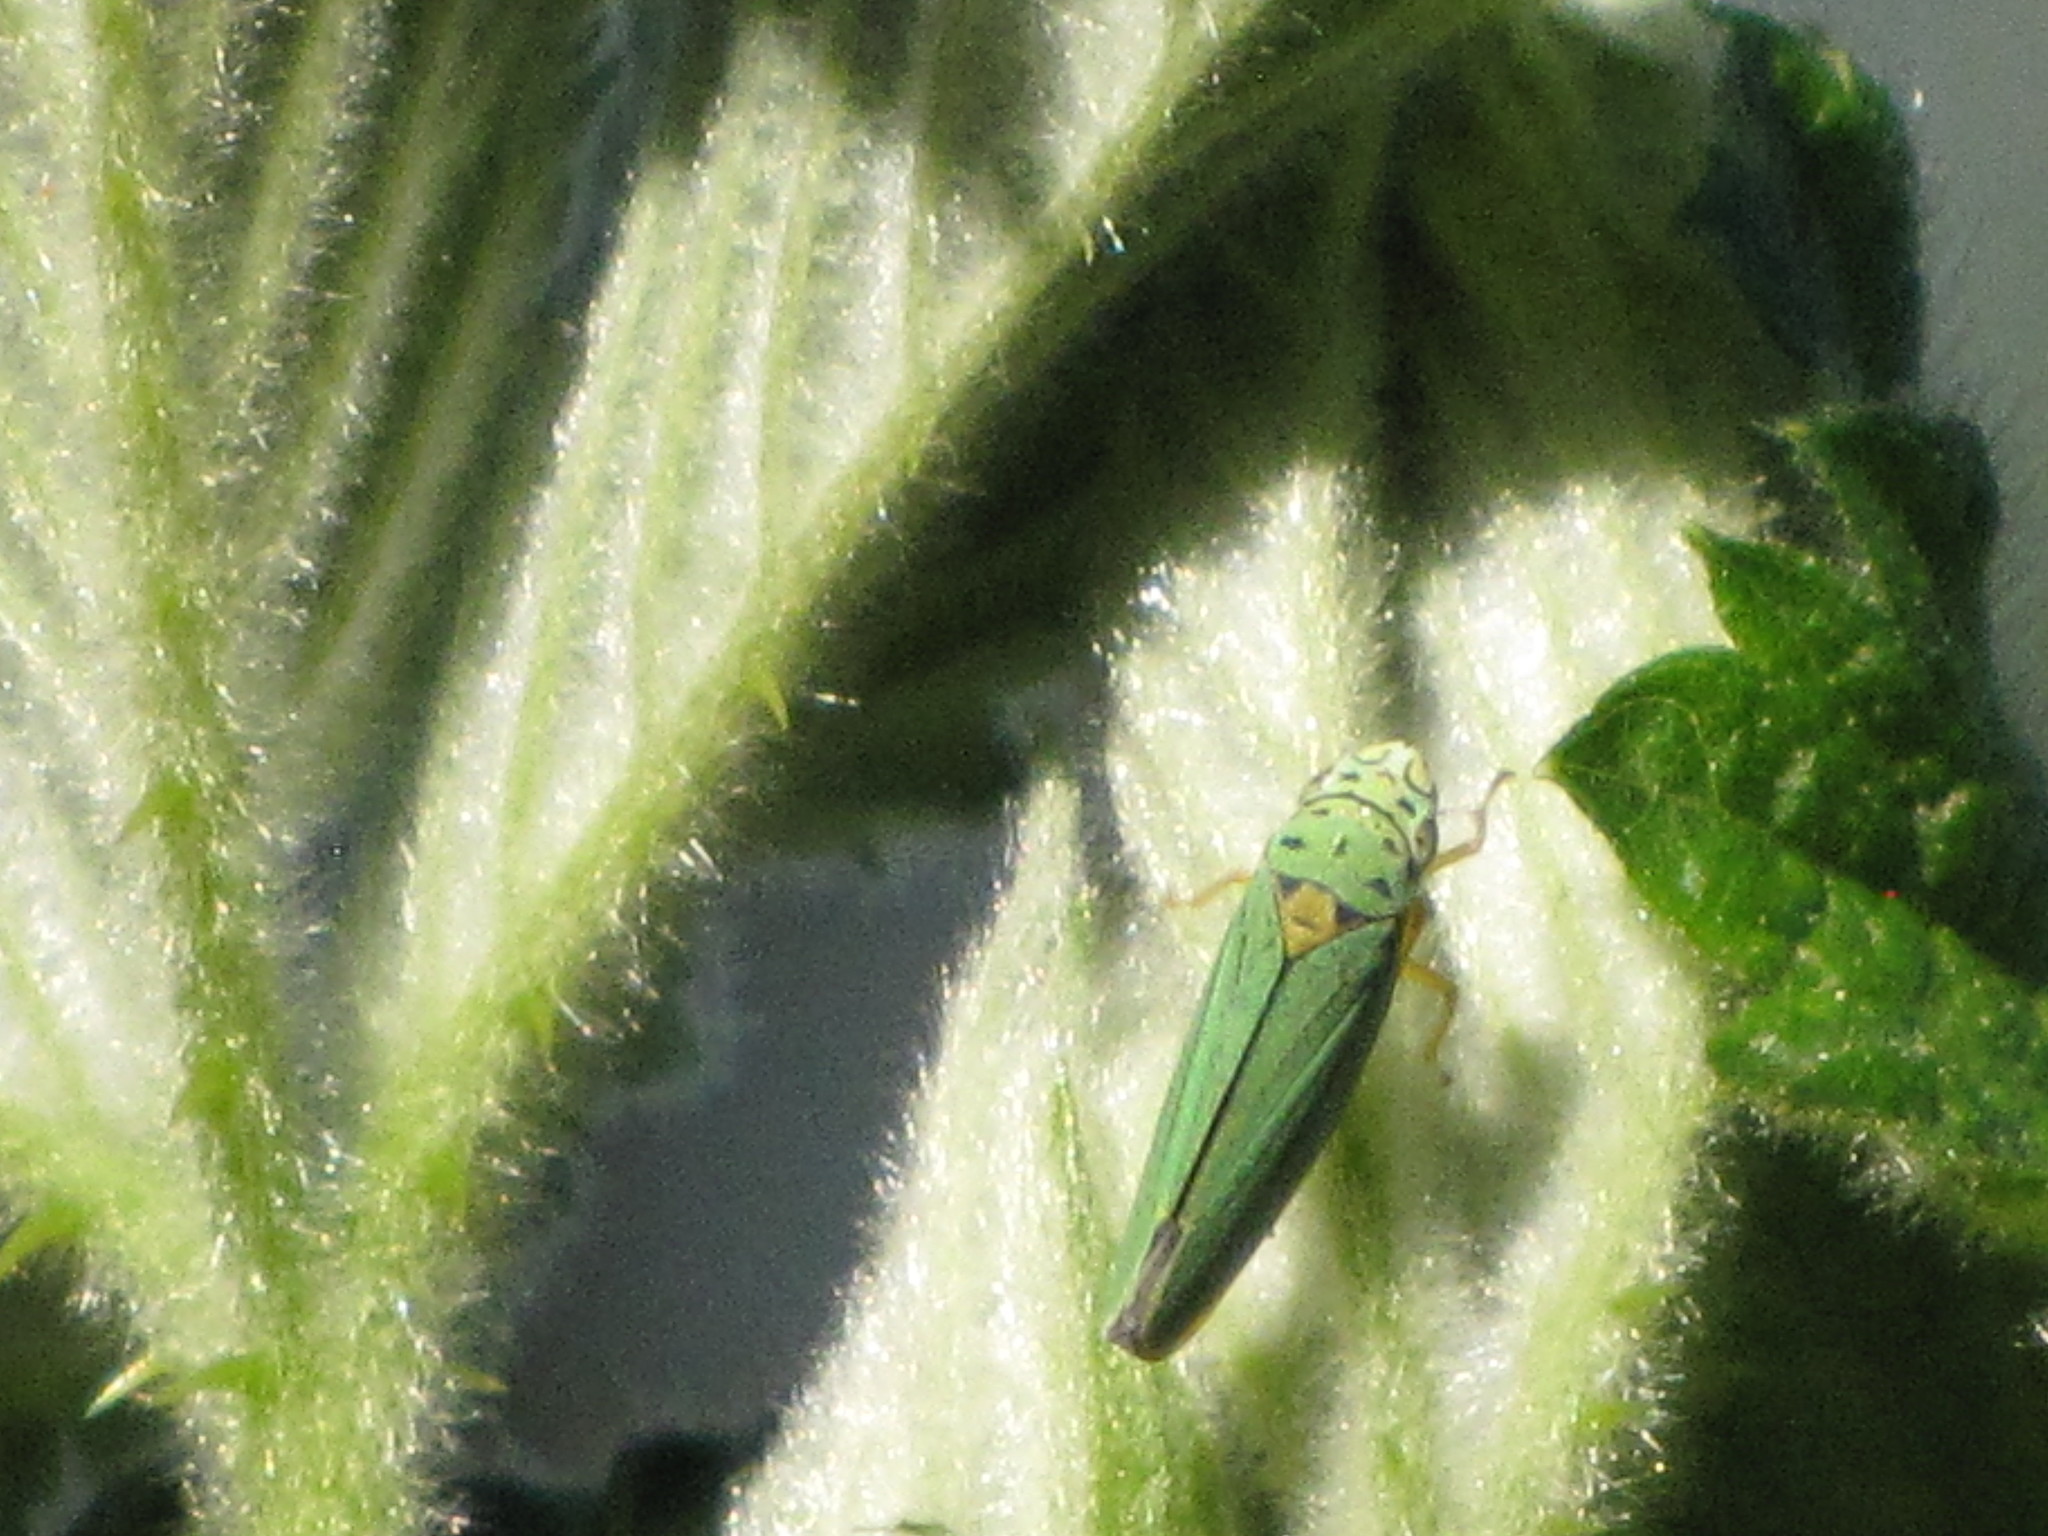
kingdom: Animalia
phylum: Arthropoda
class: Insecta
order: Hemiptera
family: Cicadellidae
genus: Graphocephala
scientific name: Graphocephala atropunctata
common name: Blue-green sharpshooter
